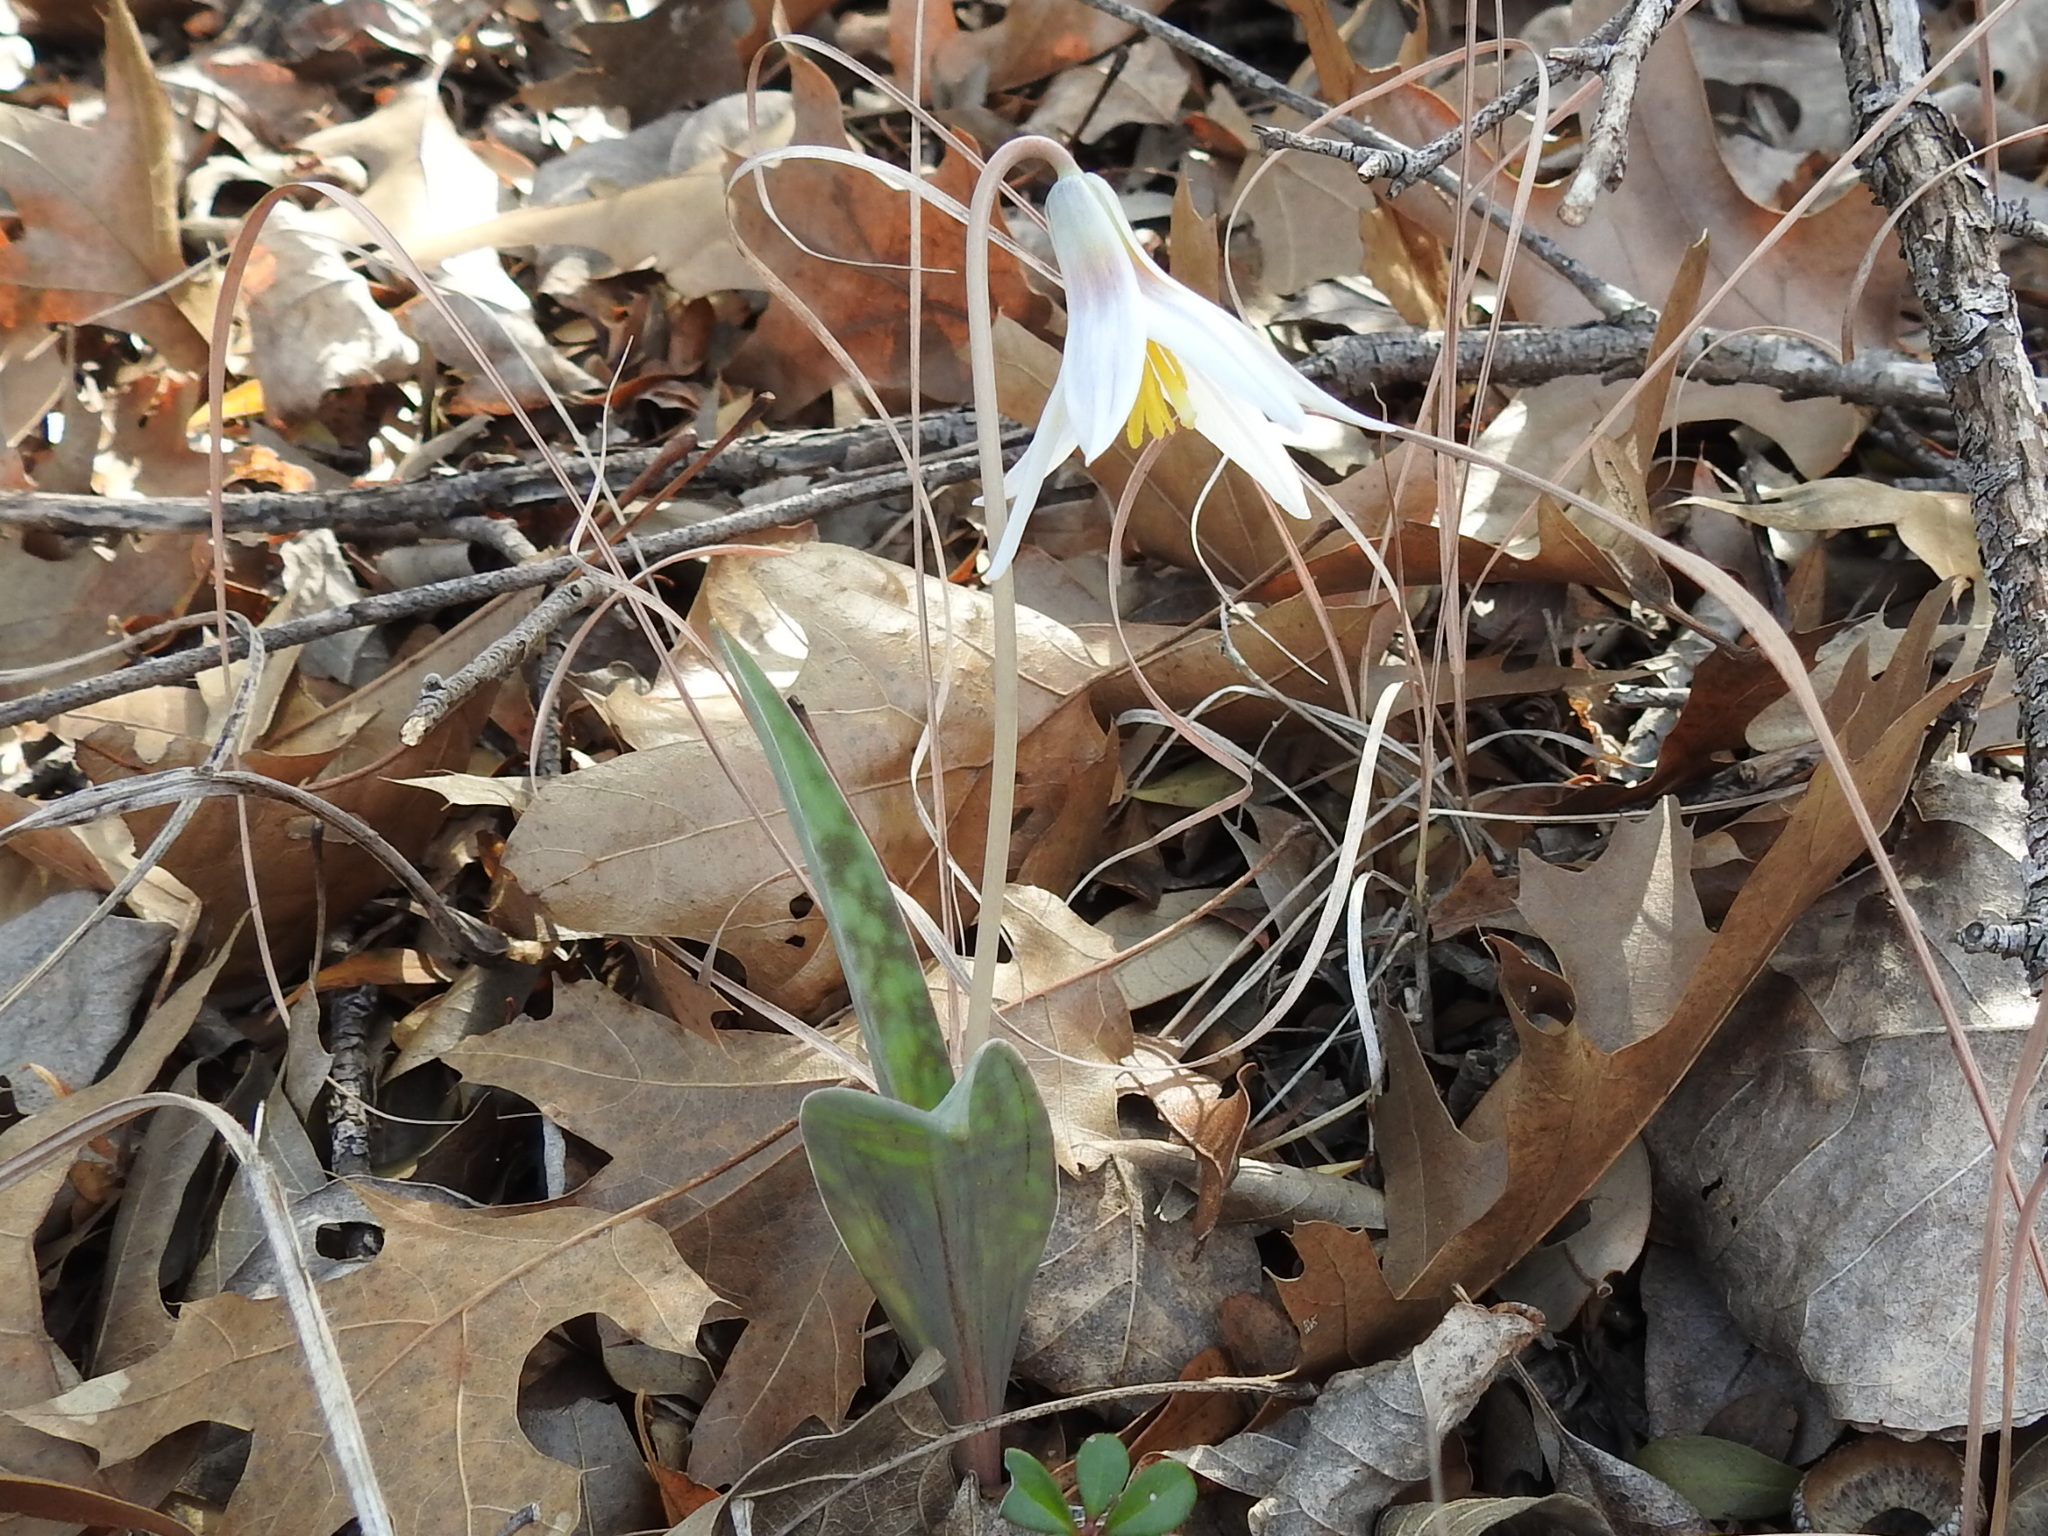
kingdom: Plantae
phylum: Tracheophyta
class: Liliopsida
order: Liliales
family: Liliaceae
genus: Erythronium
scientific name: Erythronium albidum
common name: White trout-lily
